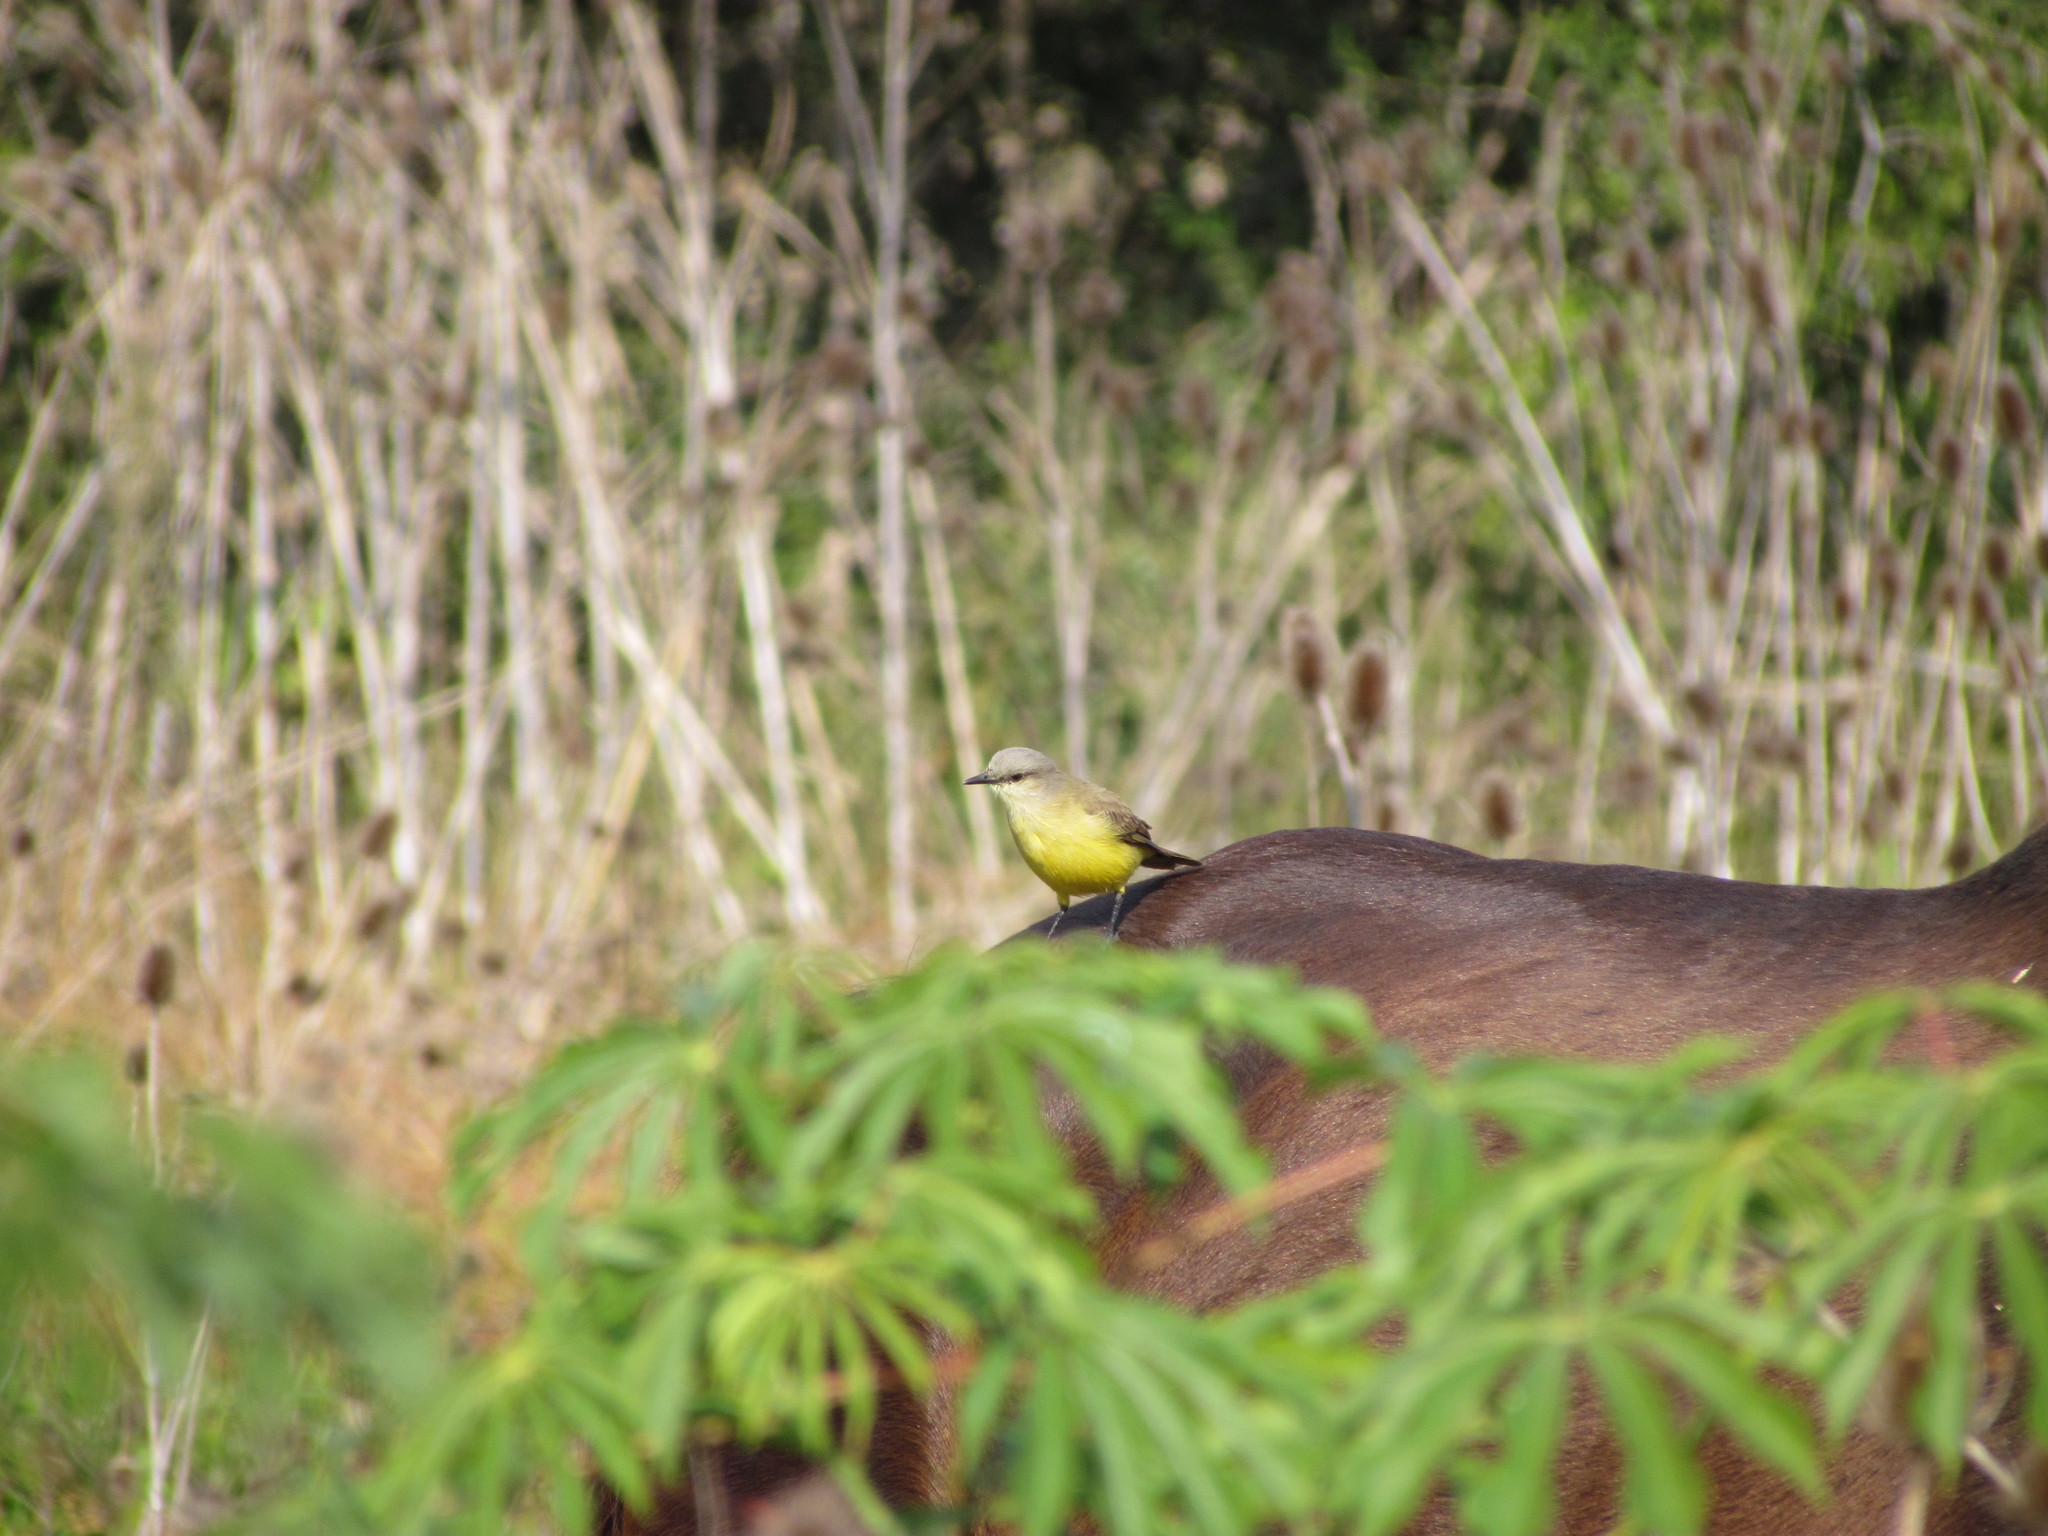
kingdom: Animalia
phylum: Chordata
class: Aves
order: Passeriformes
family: Tyrannidae
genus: Machetornis
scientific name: Machetornis rixosa
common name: Cattle tyrant
